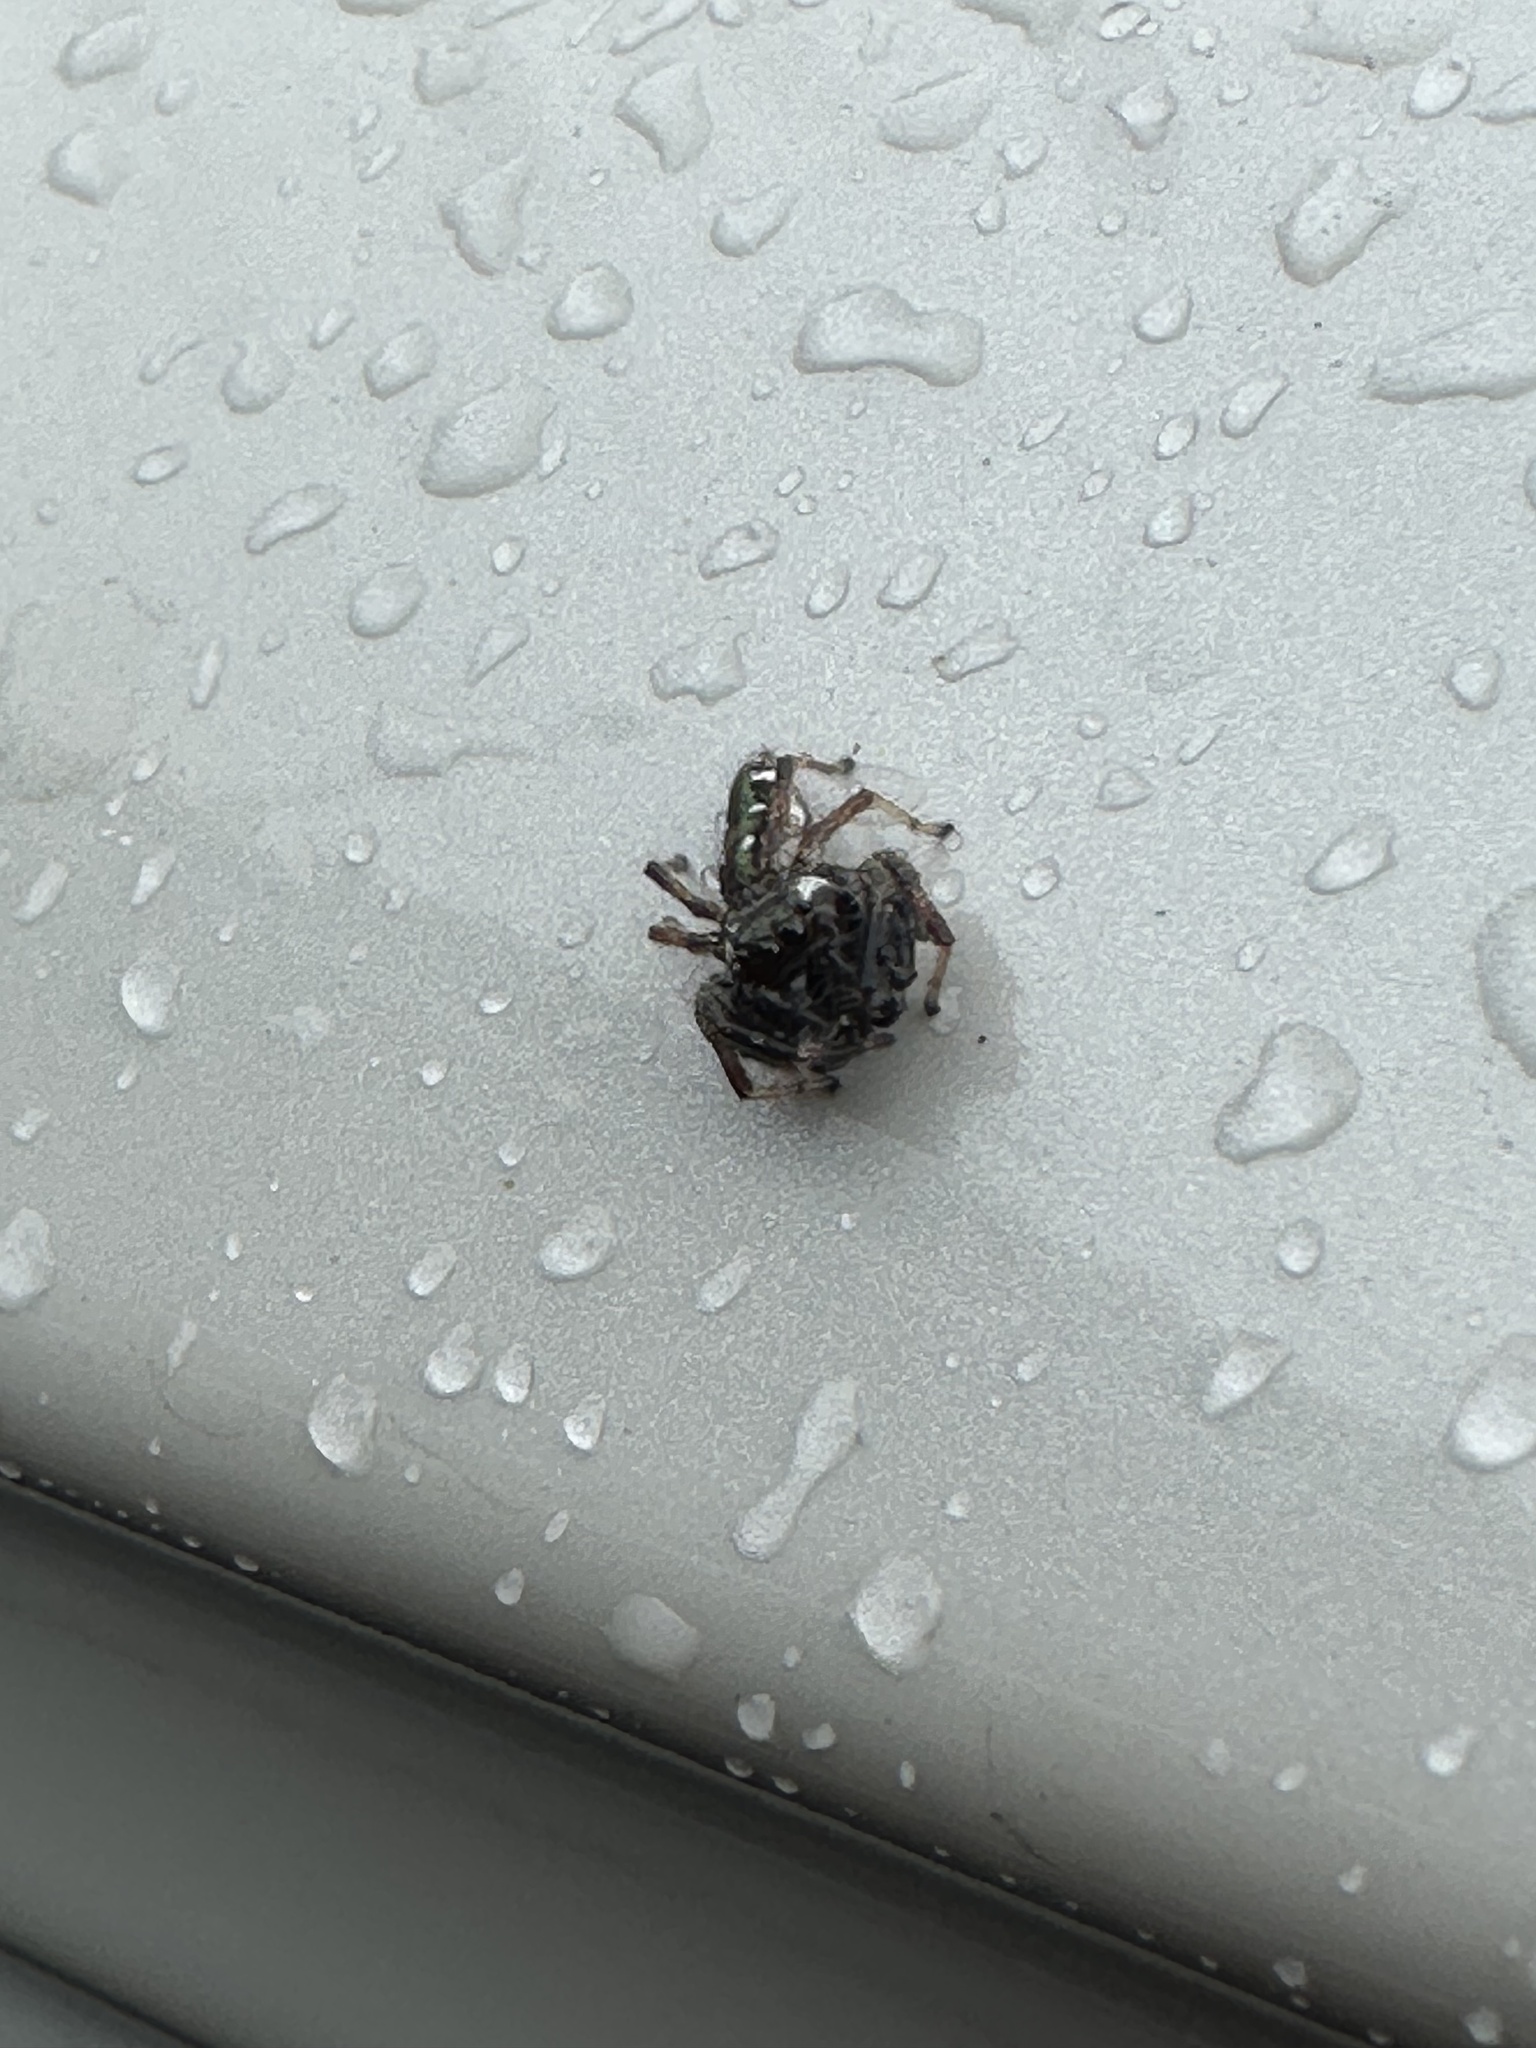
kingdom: Animalia
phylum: Arthropoda
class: Arachnida
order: Araneae
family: Salticidae
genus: Paraphidippus
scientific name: Paraphidippus aurantius
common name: Jumping spiders
